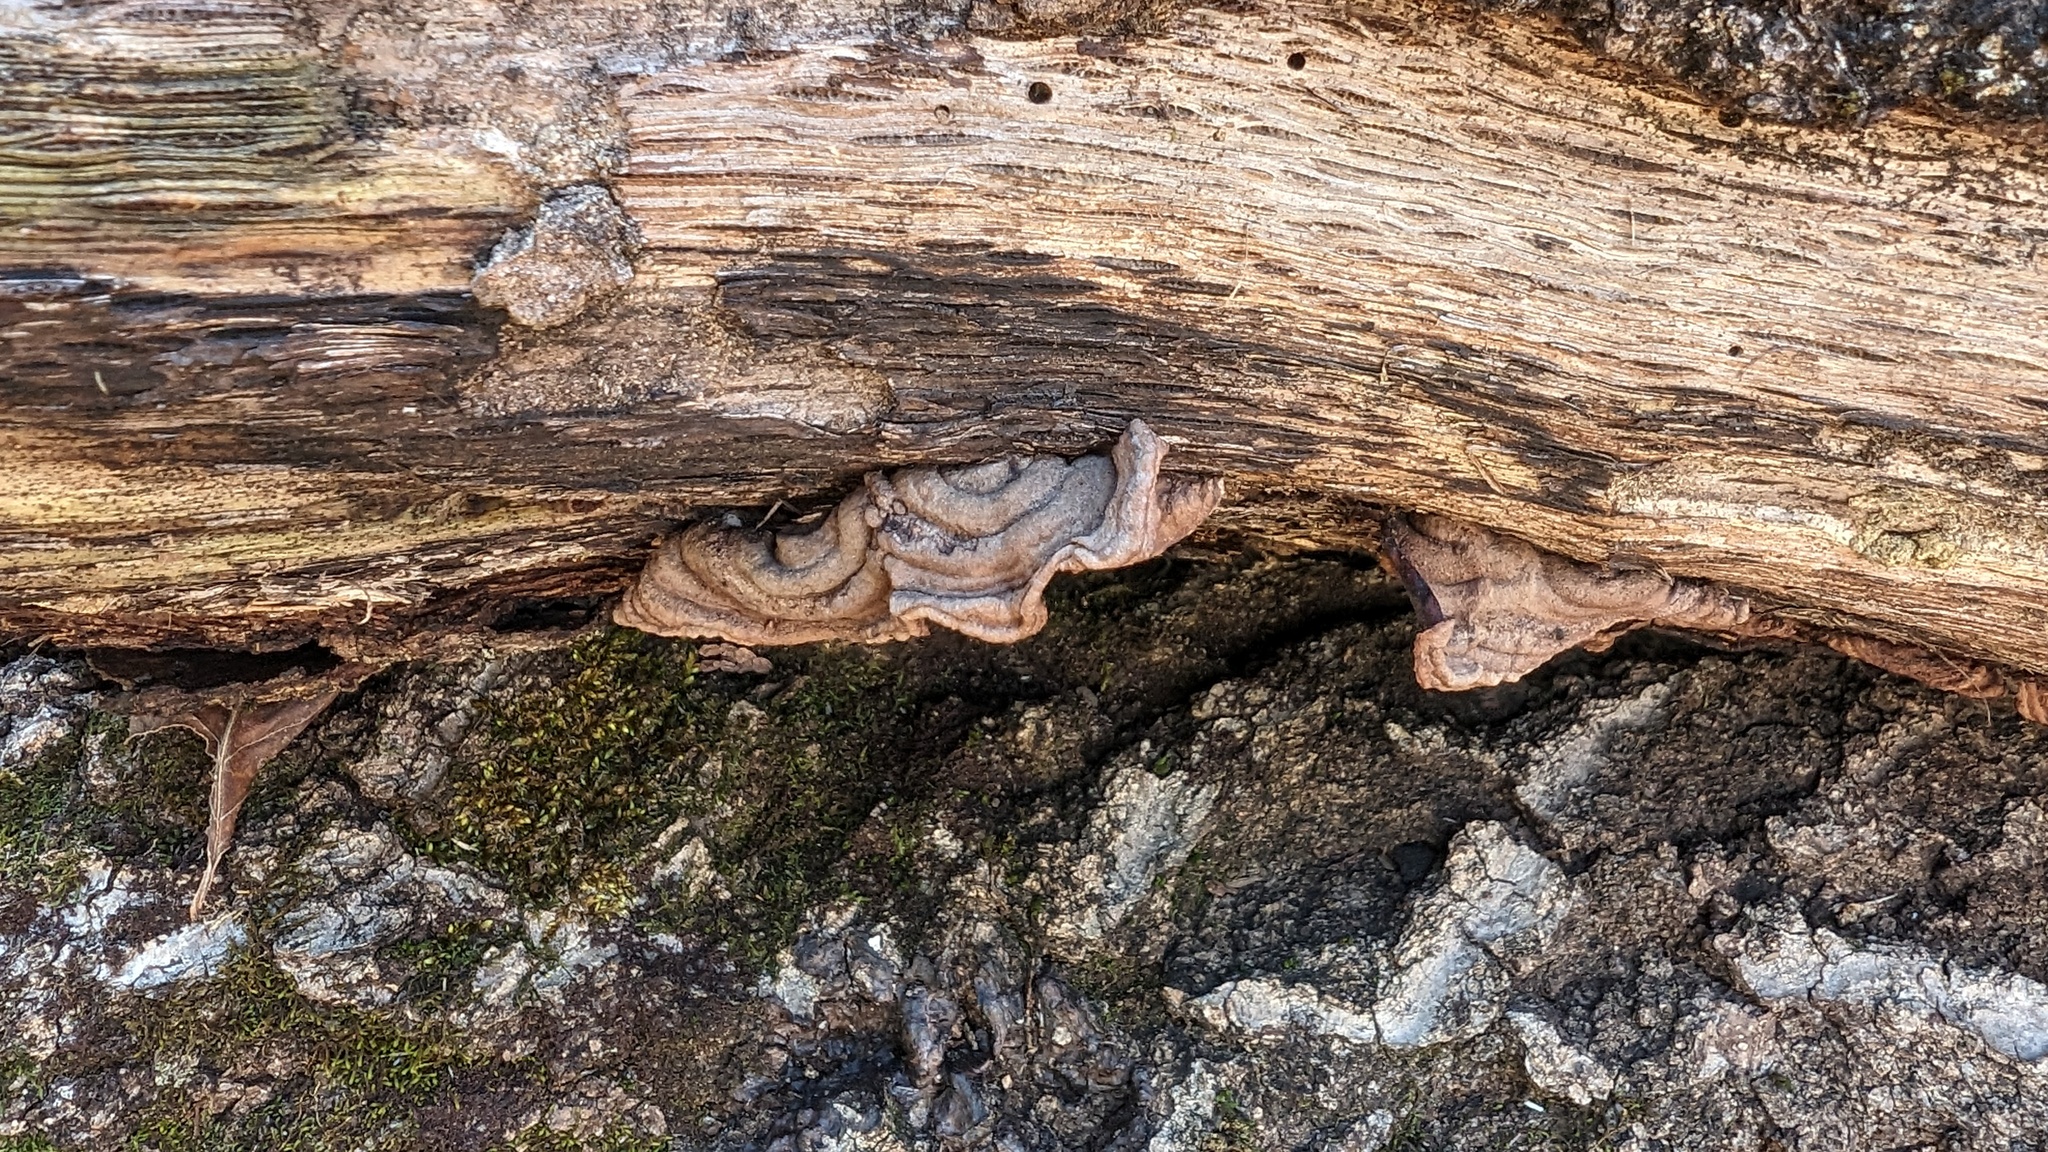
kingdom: Fungi
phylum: Basidiomycota
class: Agaricomycetes
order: Corticiales
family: Punctulariaceae
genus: Punctularia
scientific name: Punctularia strigosozonata
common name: White-rot fungus
